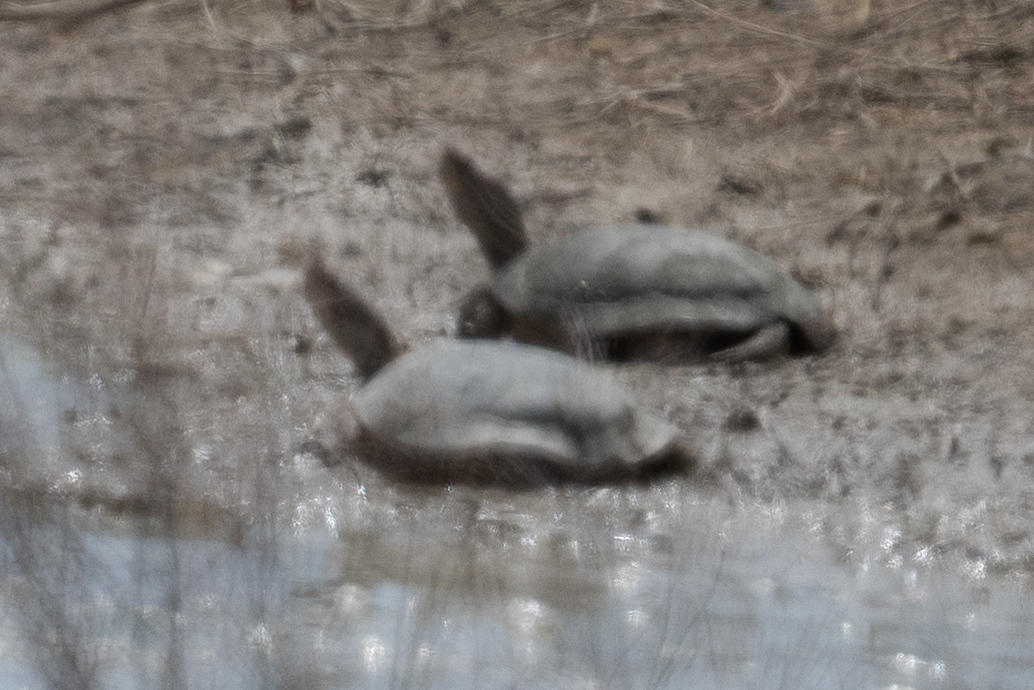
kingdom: Animalia
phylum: Chordata
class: Testudines
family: Emydidae
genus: Actinemys
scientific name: Actinemys marmorata
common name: Western pond turtle
